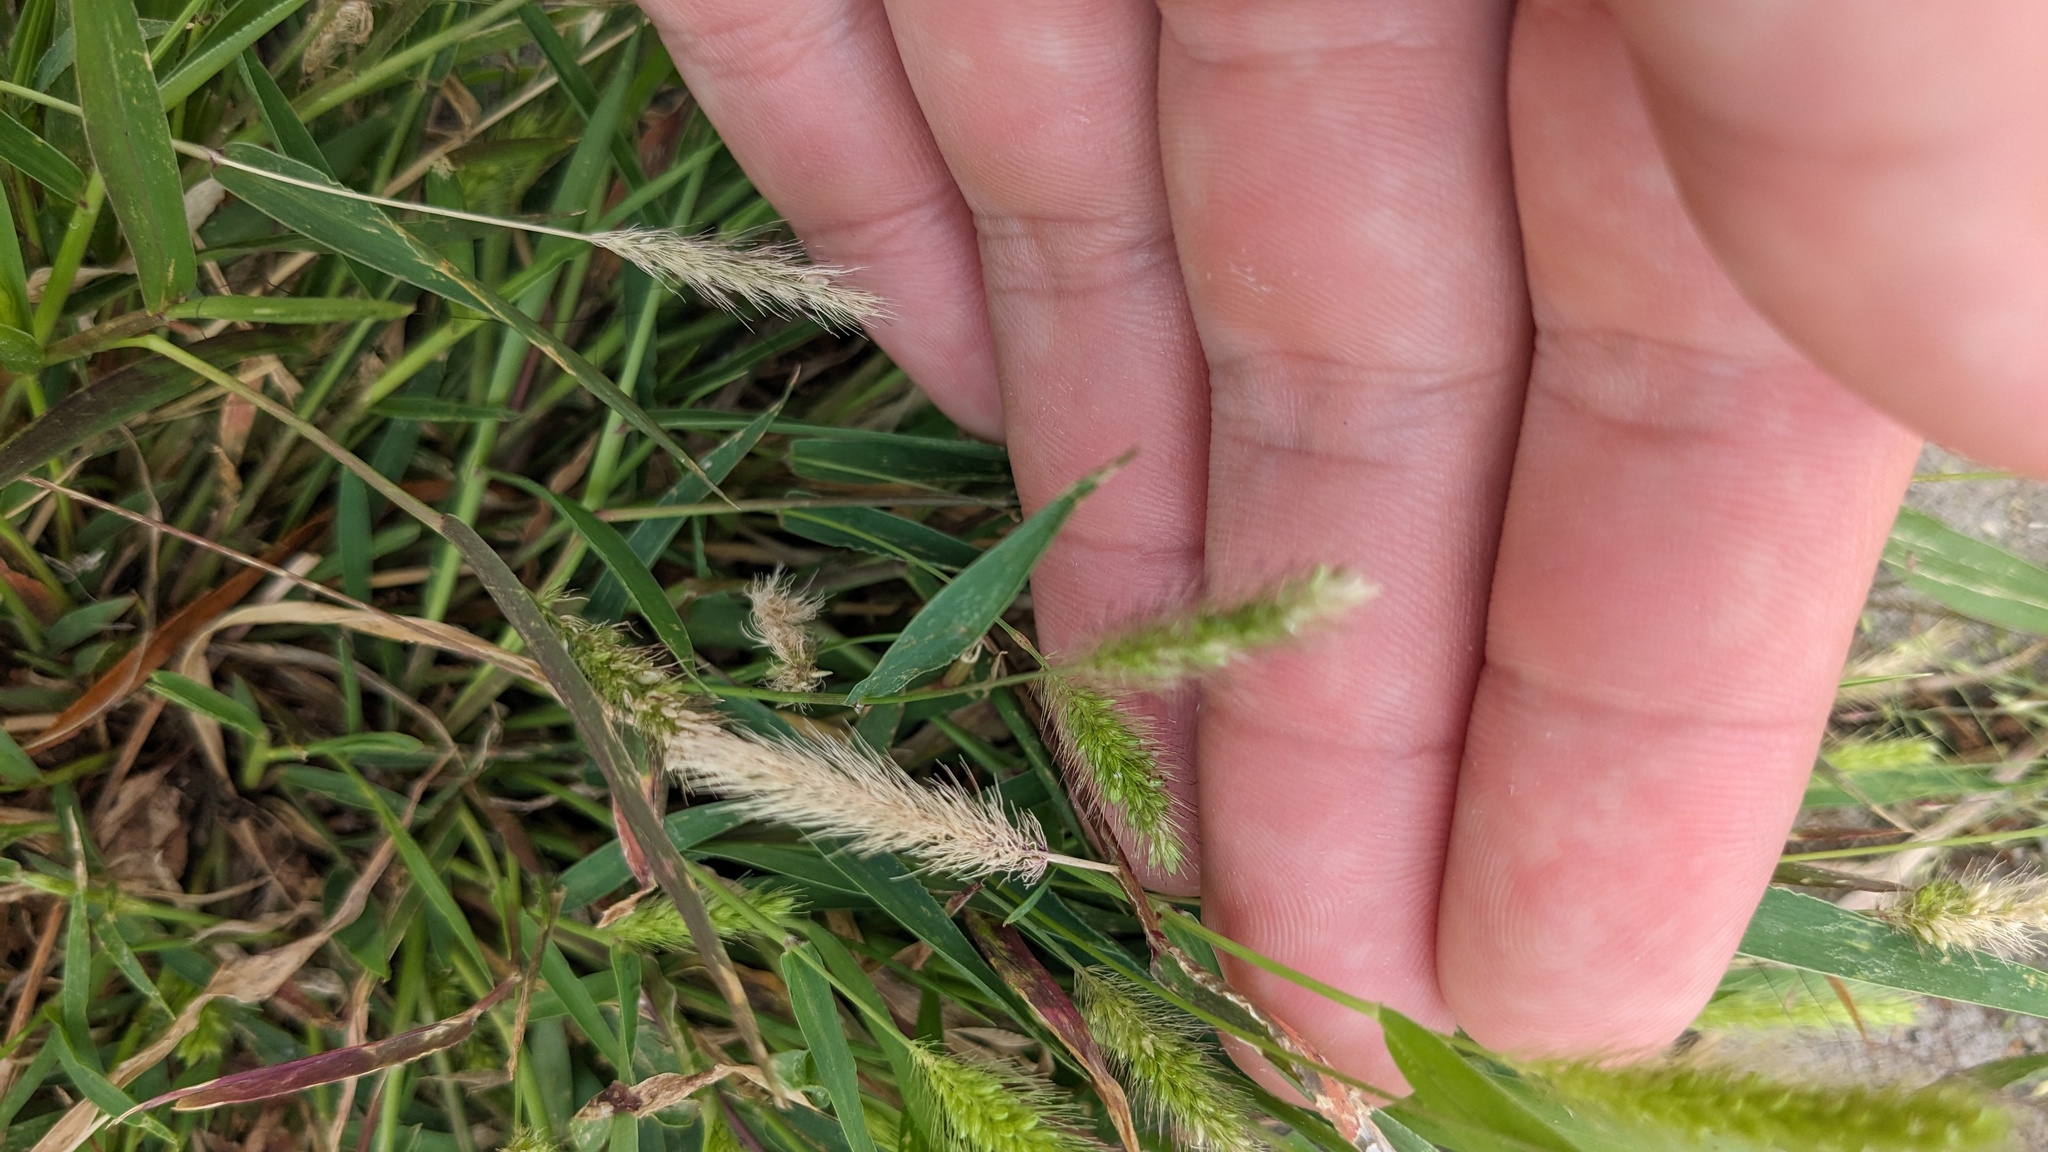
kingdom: Plantae
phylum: Tracheophyta
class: Liliopsida
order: Poales
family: Poaceae
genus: Setaria
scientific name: Setaria viridis
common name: Green bristlegrass
